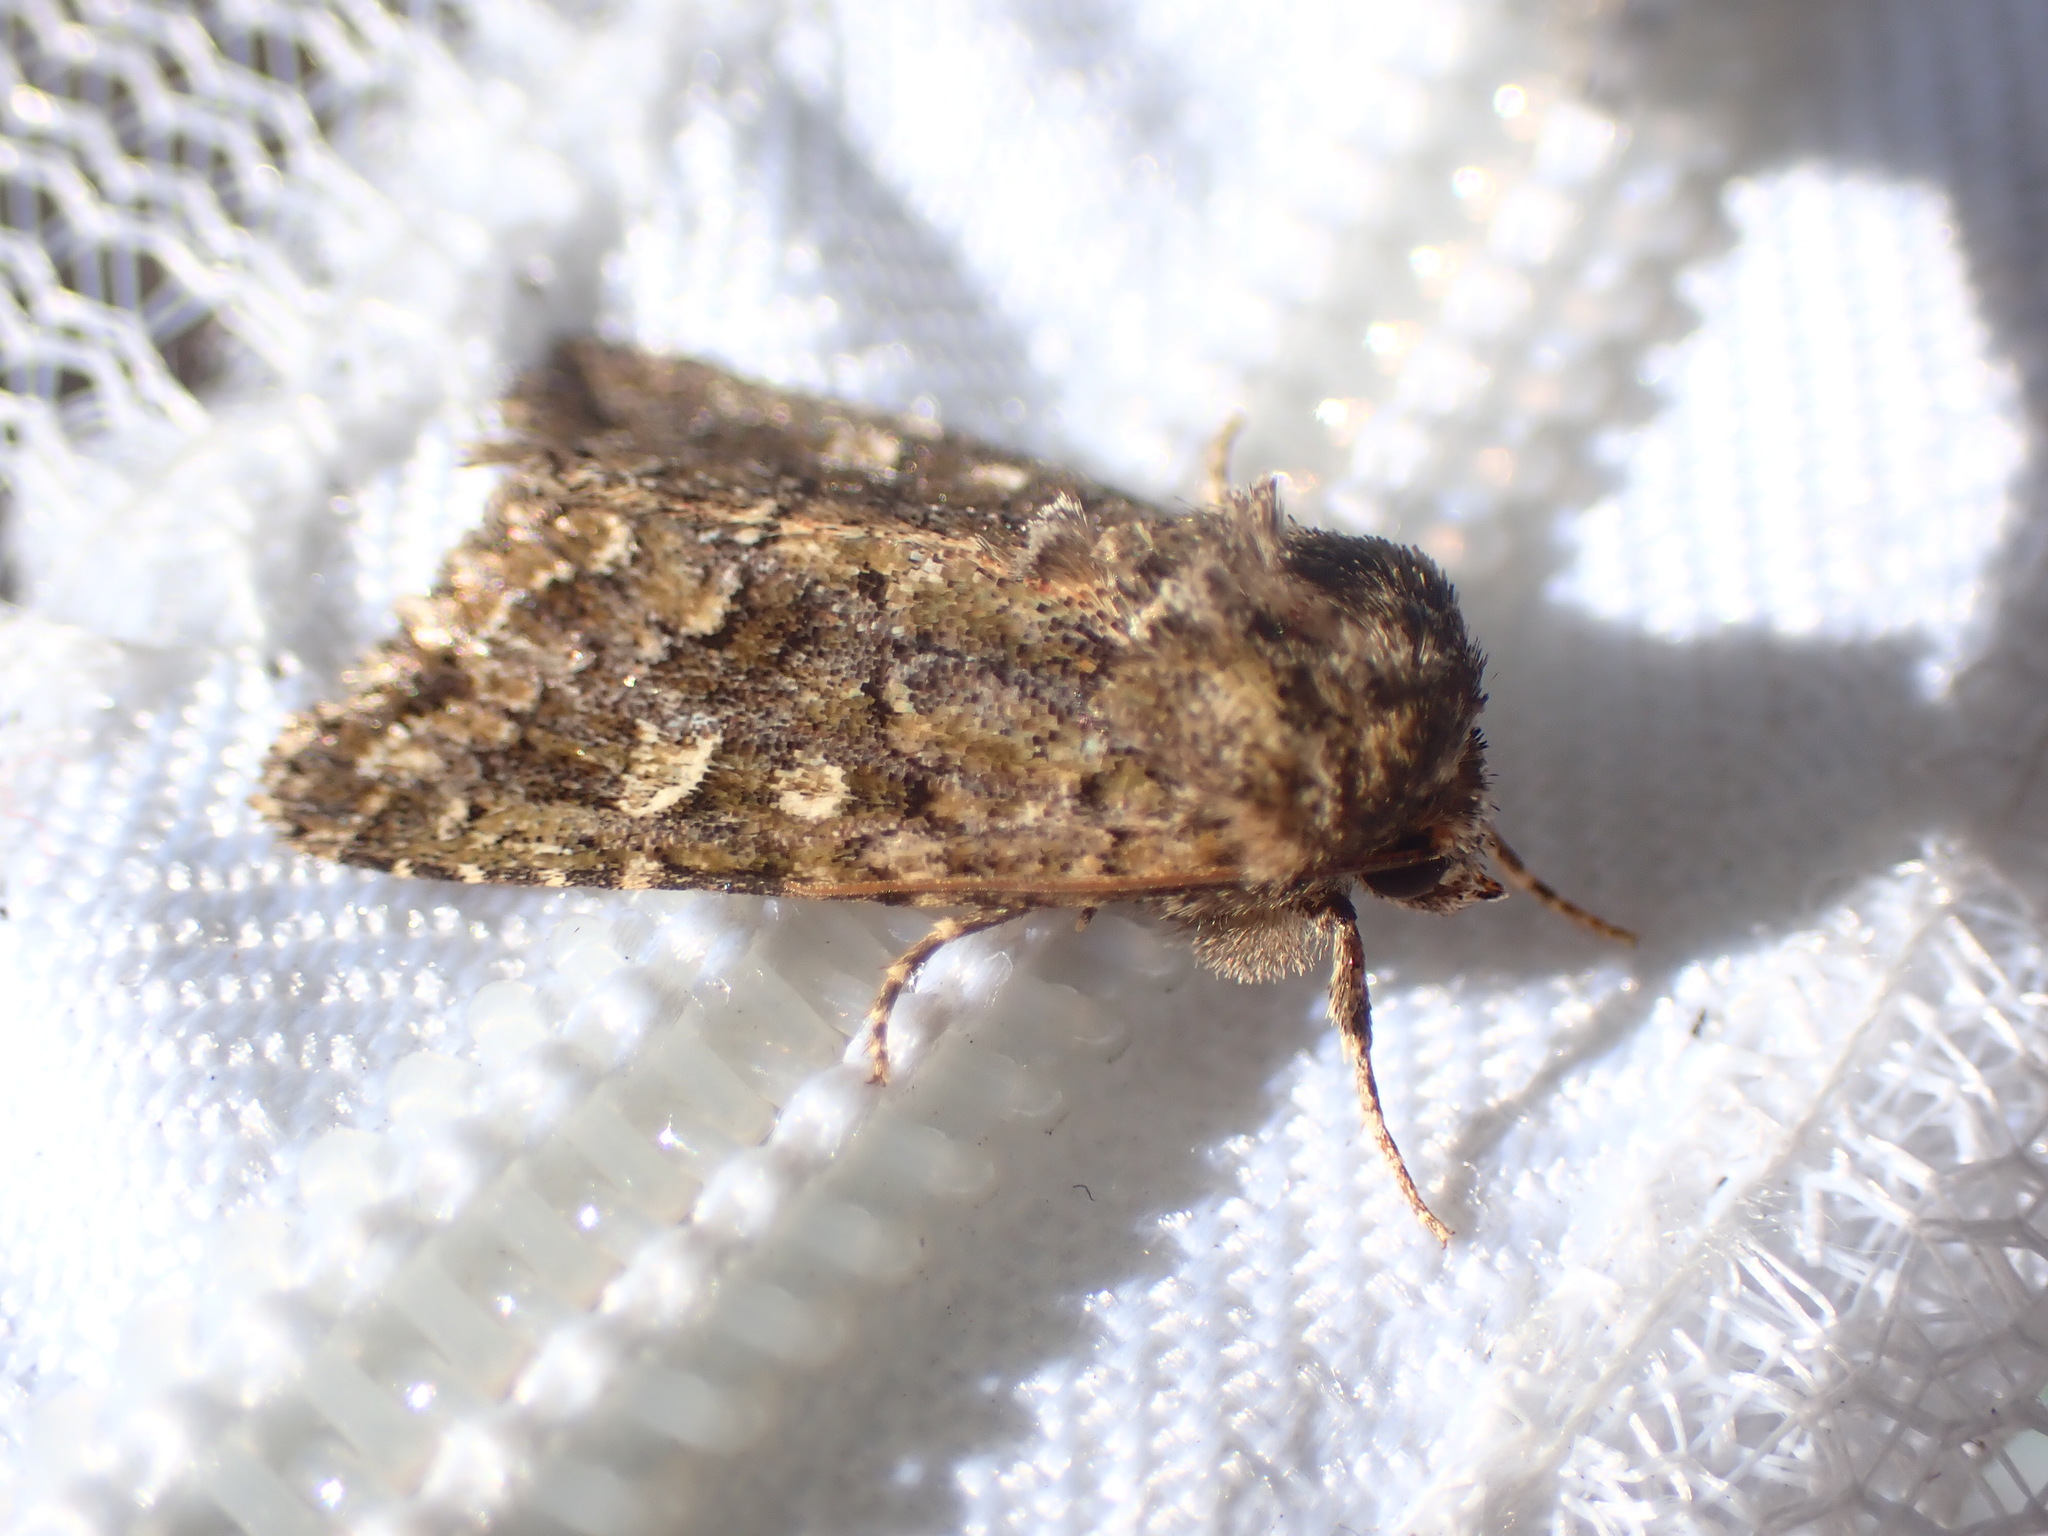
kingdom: Animalia
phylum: Arthropoda
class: Insecta
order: Lepidoptera
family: Noctuidae
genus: Aseptis
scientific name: Aseptis marina
